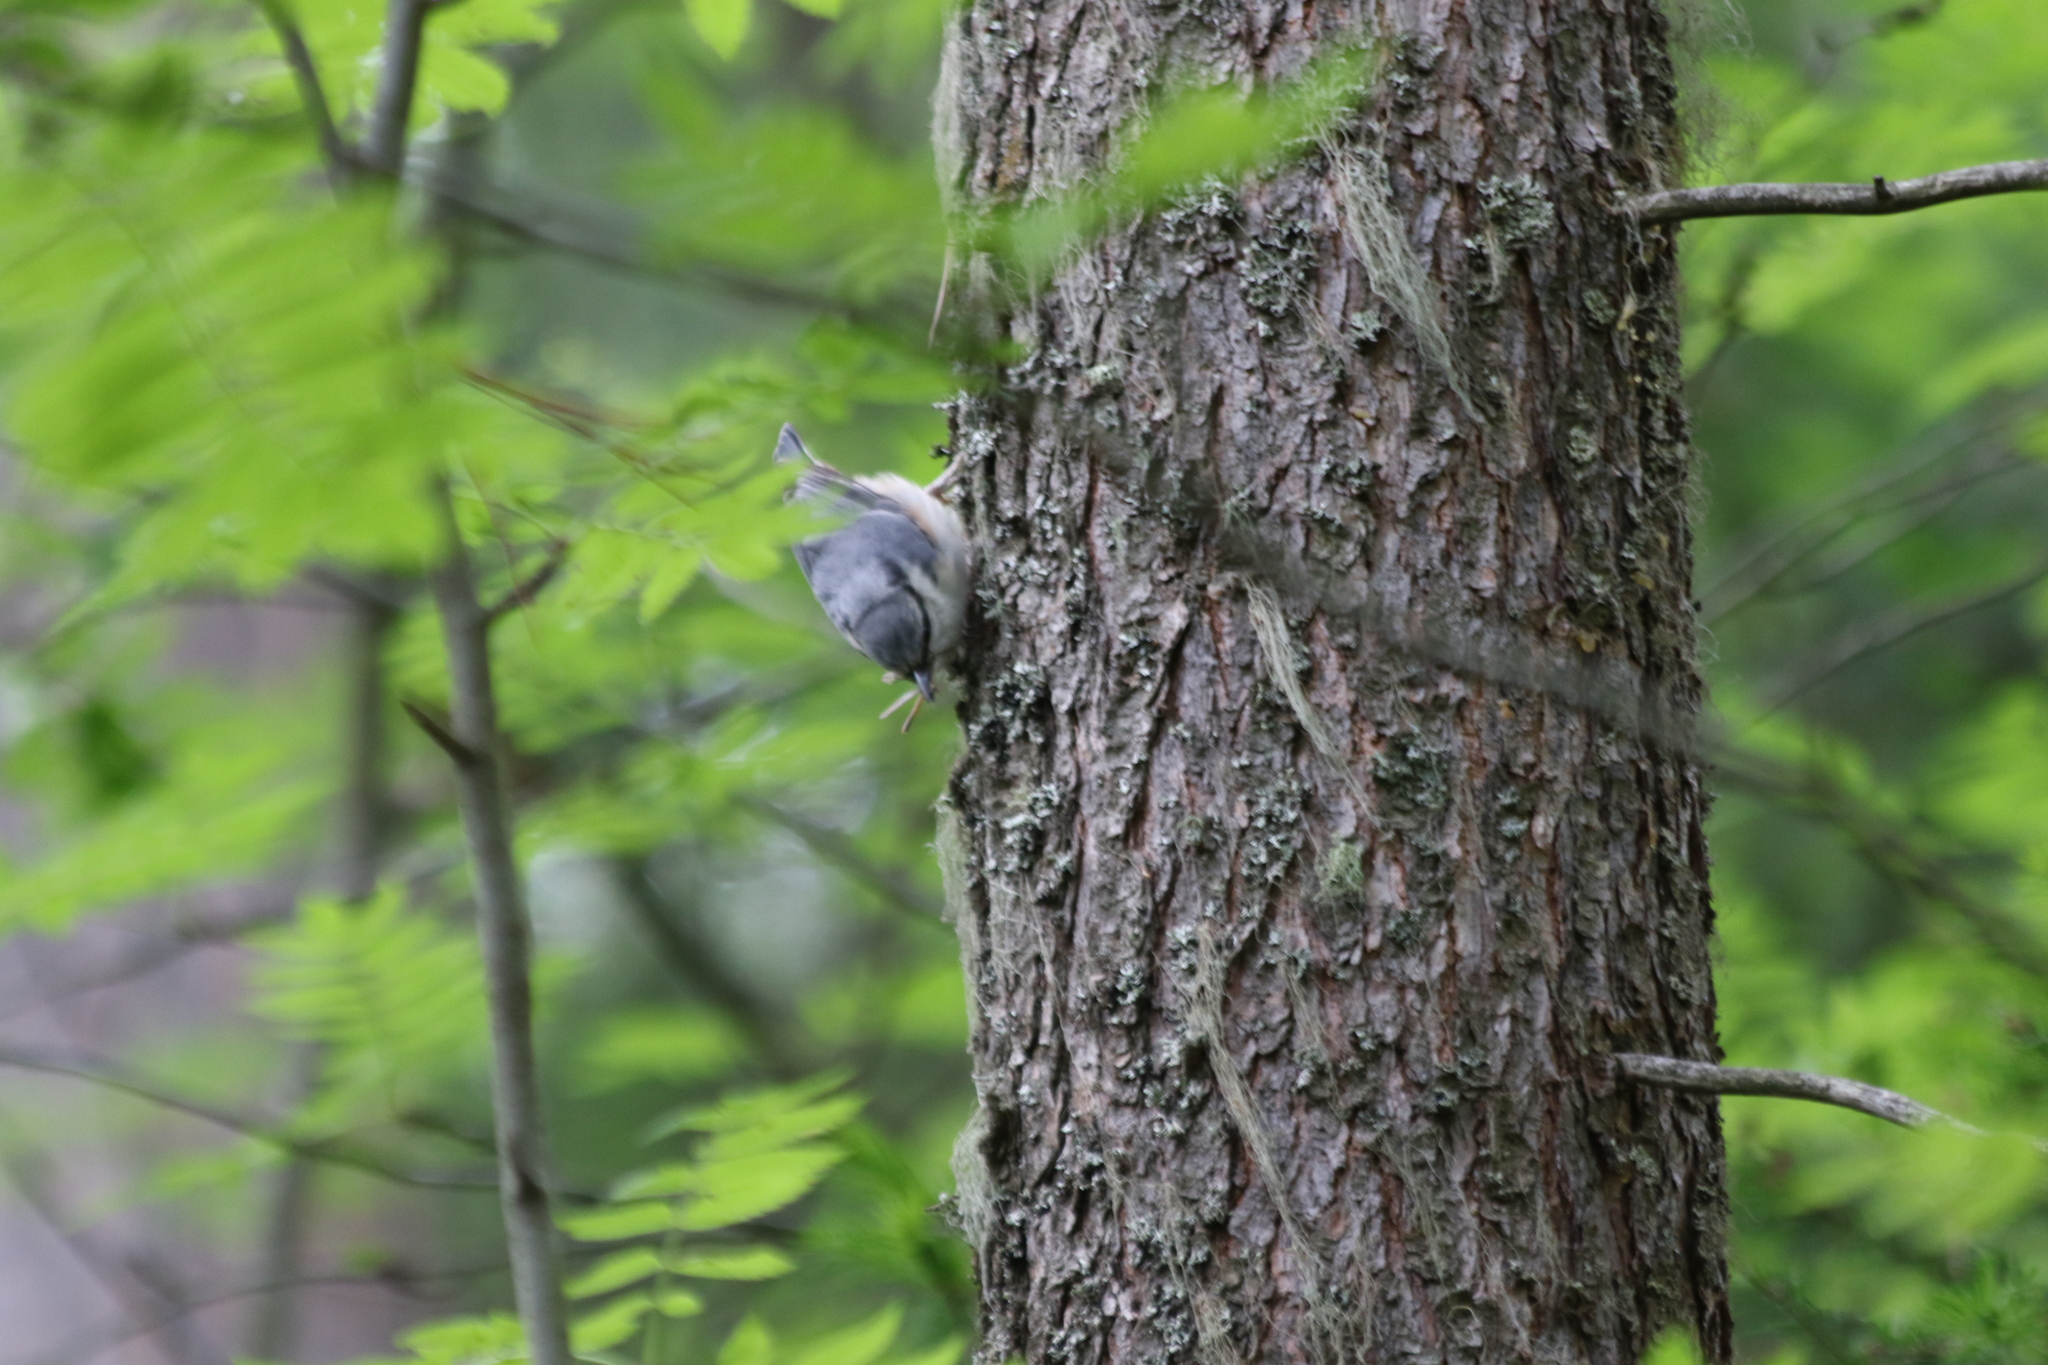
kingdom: Animalia
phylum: Chordata
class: Aves
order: Passeriformes
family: Sittidae
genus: Sitta
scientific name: Sitta europaea
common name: Eurasian nuthatch
